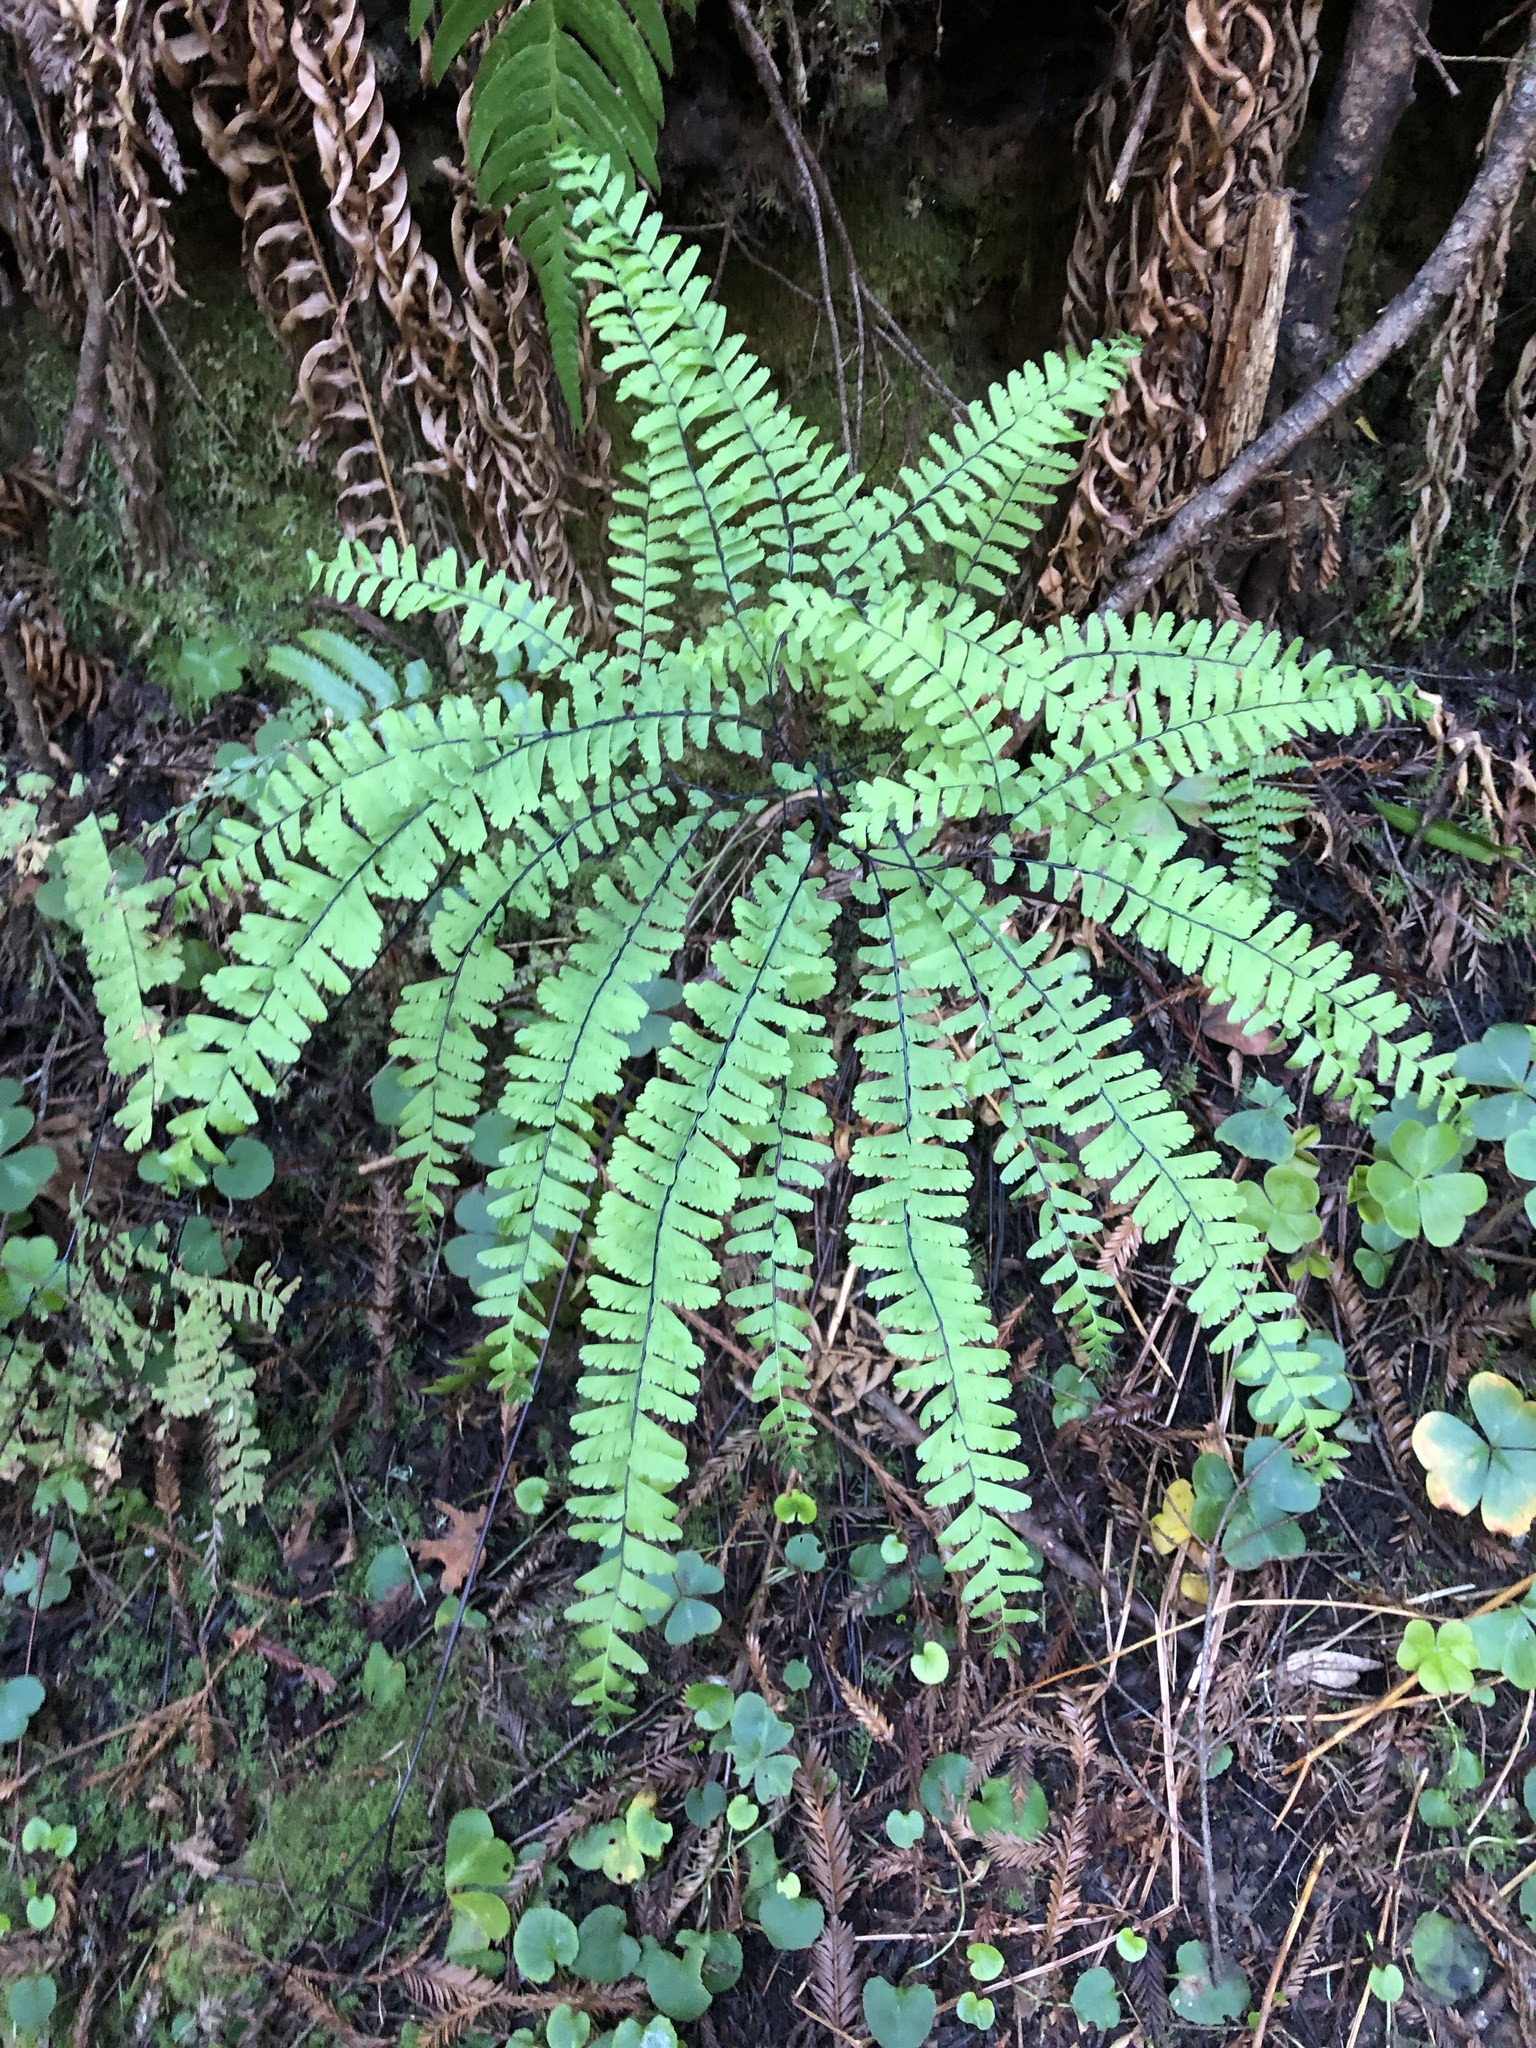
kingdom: Plantae
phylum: Tracheophyta
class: Polypodiopsida
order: Polypodiales
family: Pteridaceae
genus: Adiantum
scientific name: Adiantum aleuticum
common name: Aleutian maidenhair fern
